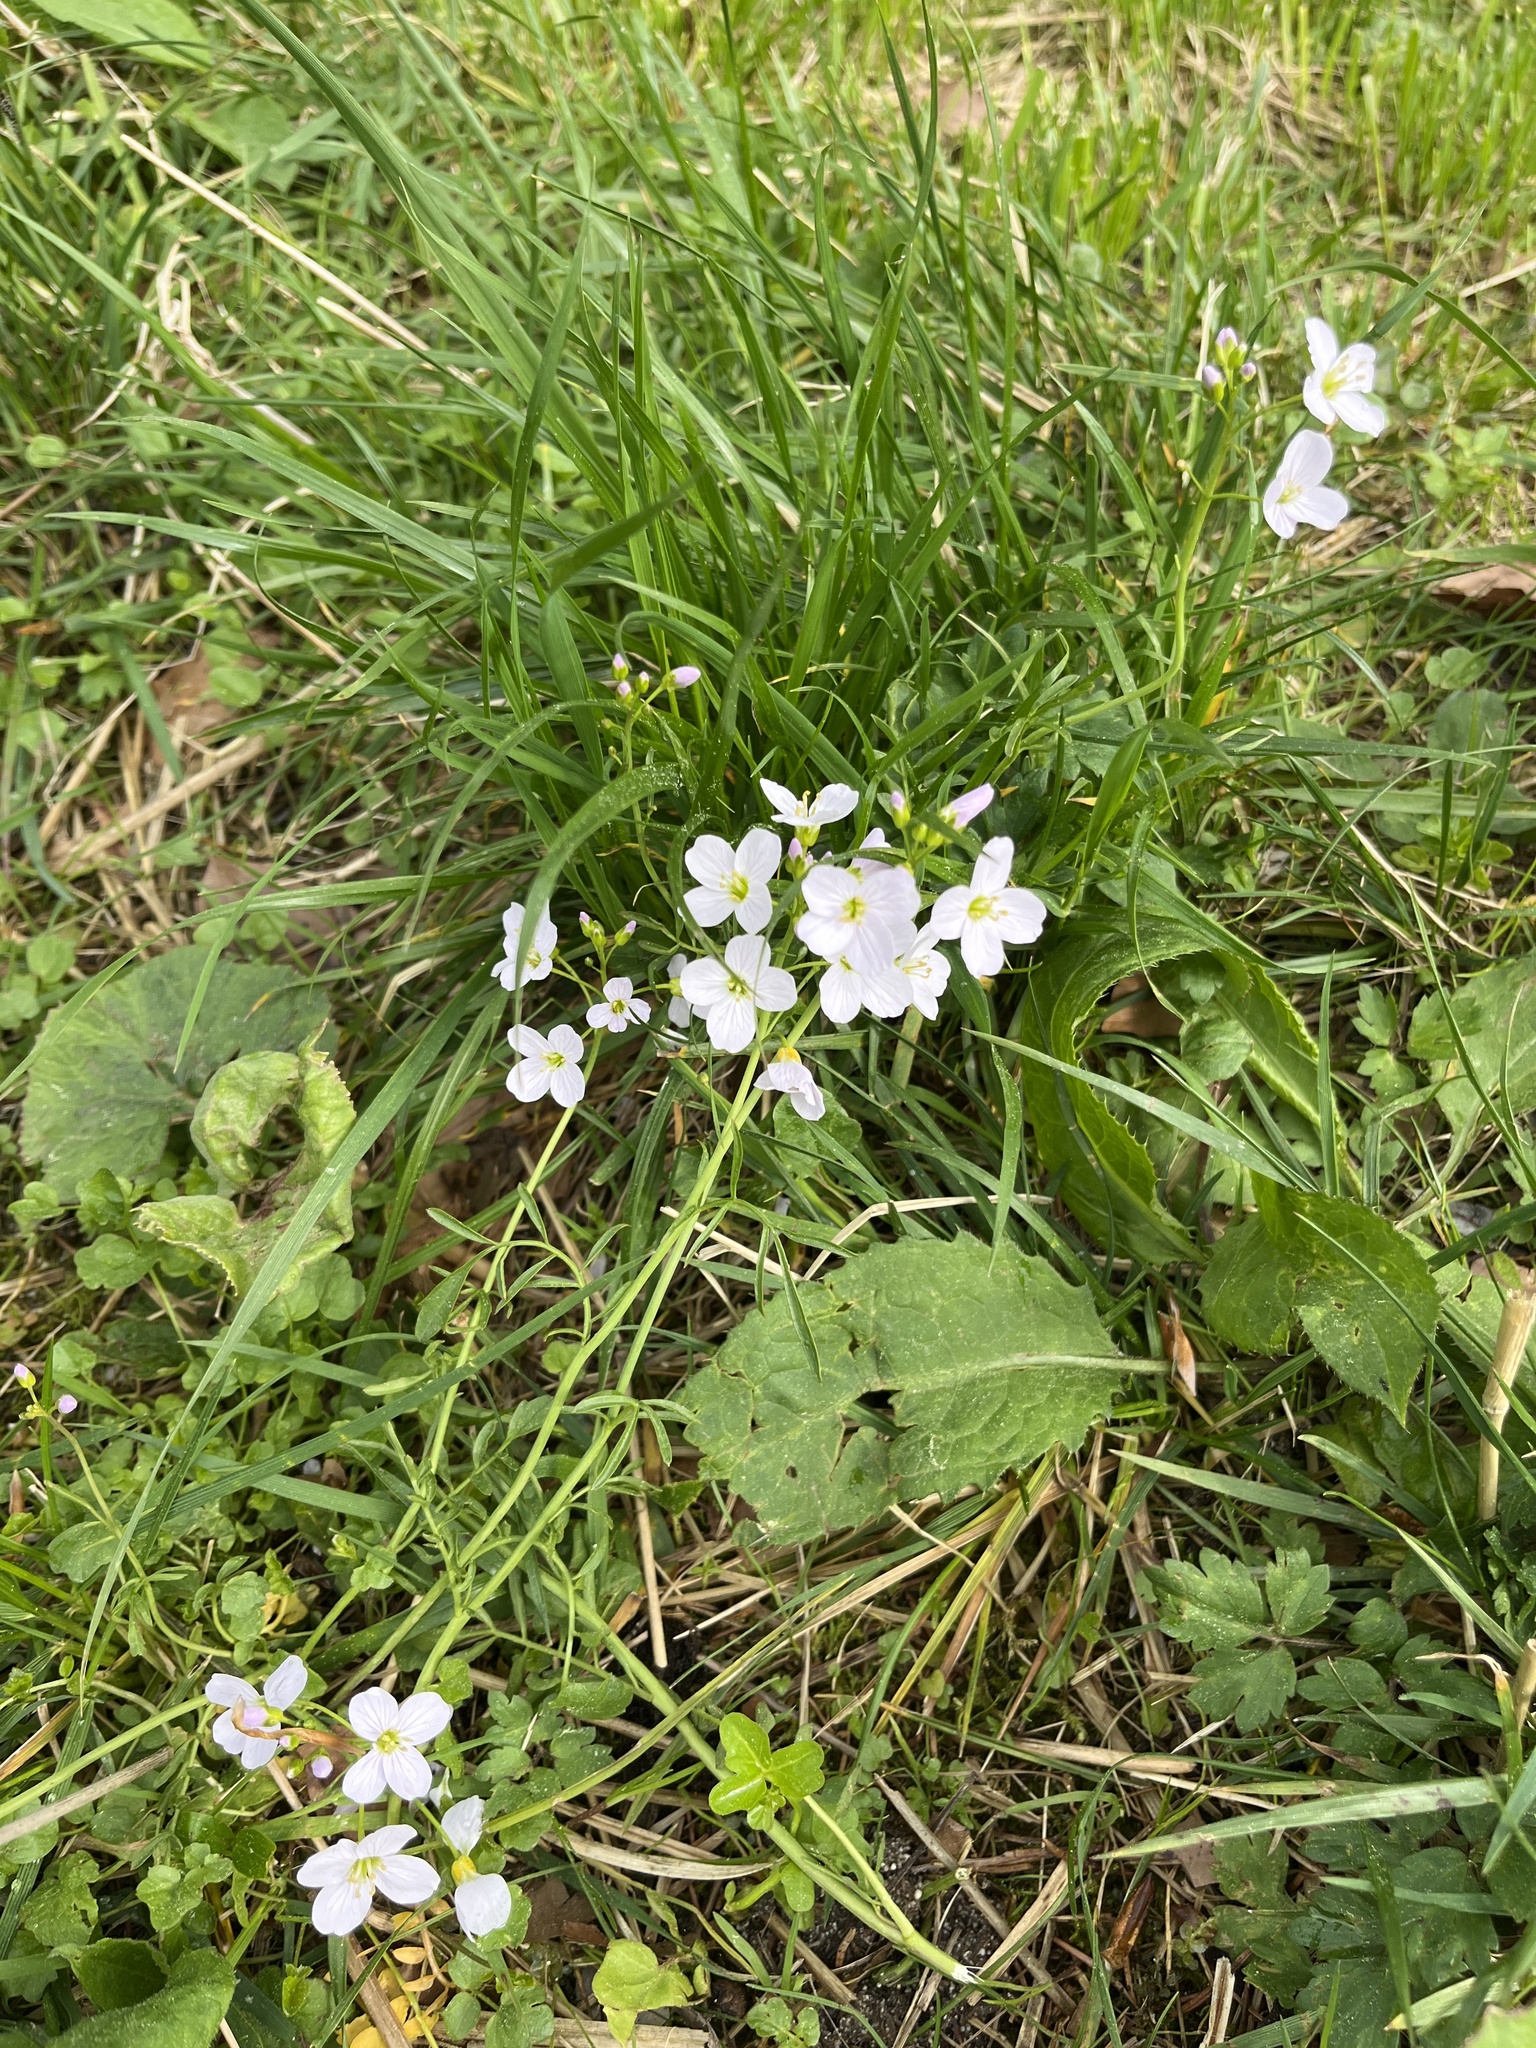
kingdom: Plantae
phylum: Tracheophyta
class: Magnoliopsida
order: Brassicales
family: Brassicaceae
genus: Cardamine
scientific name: Cardamine pratensis
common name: Cuckoo flower
